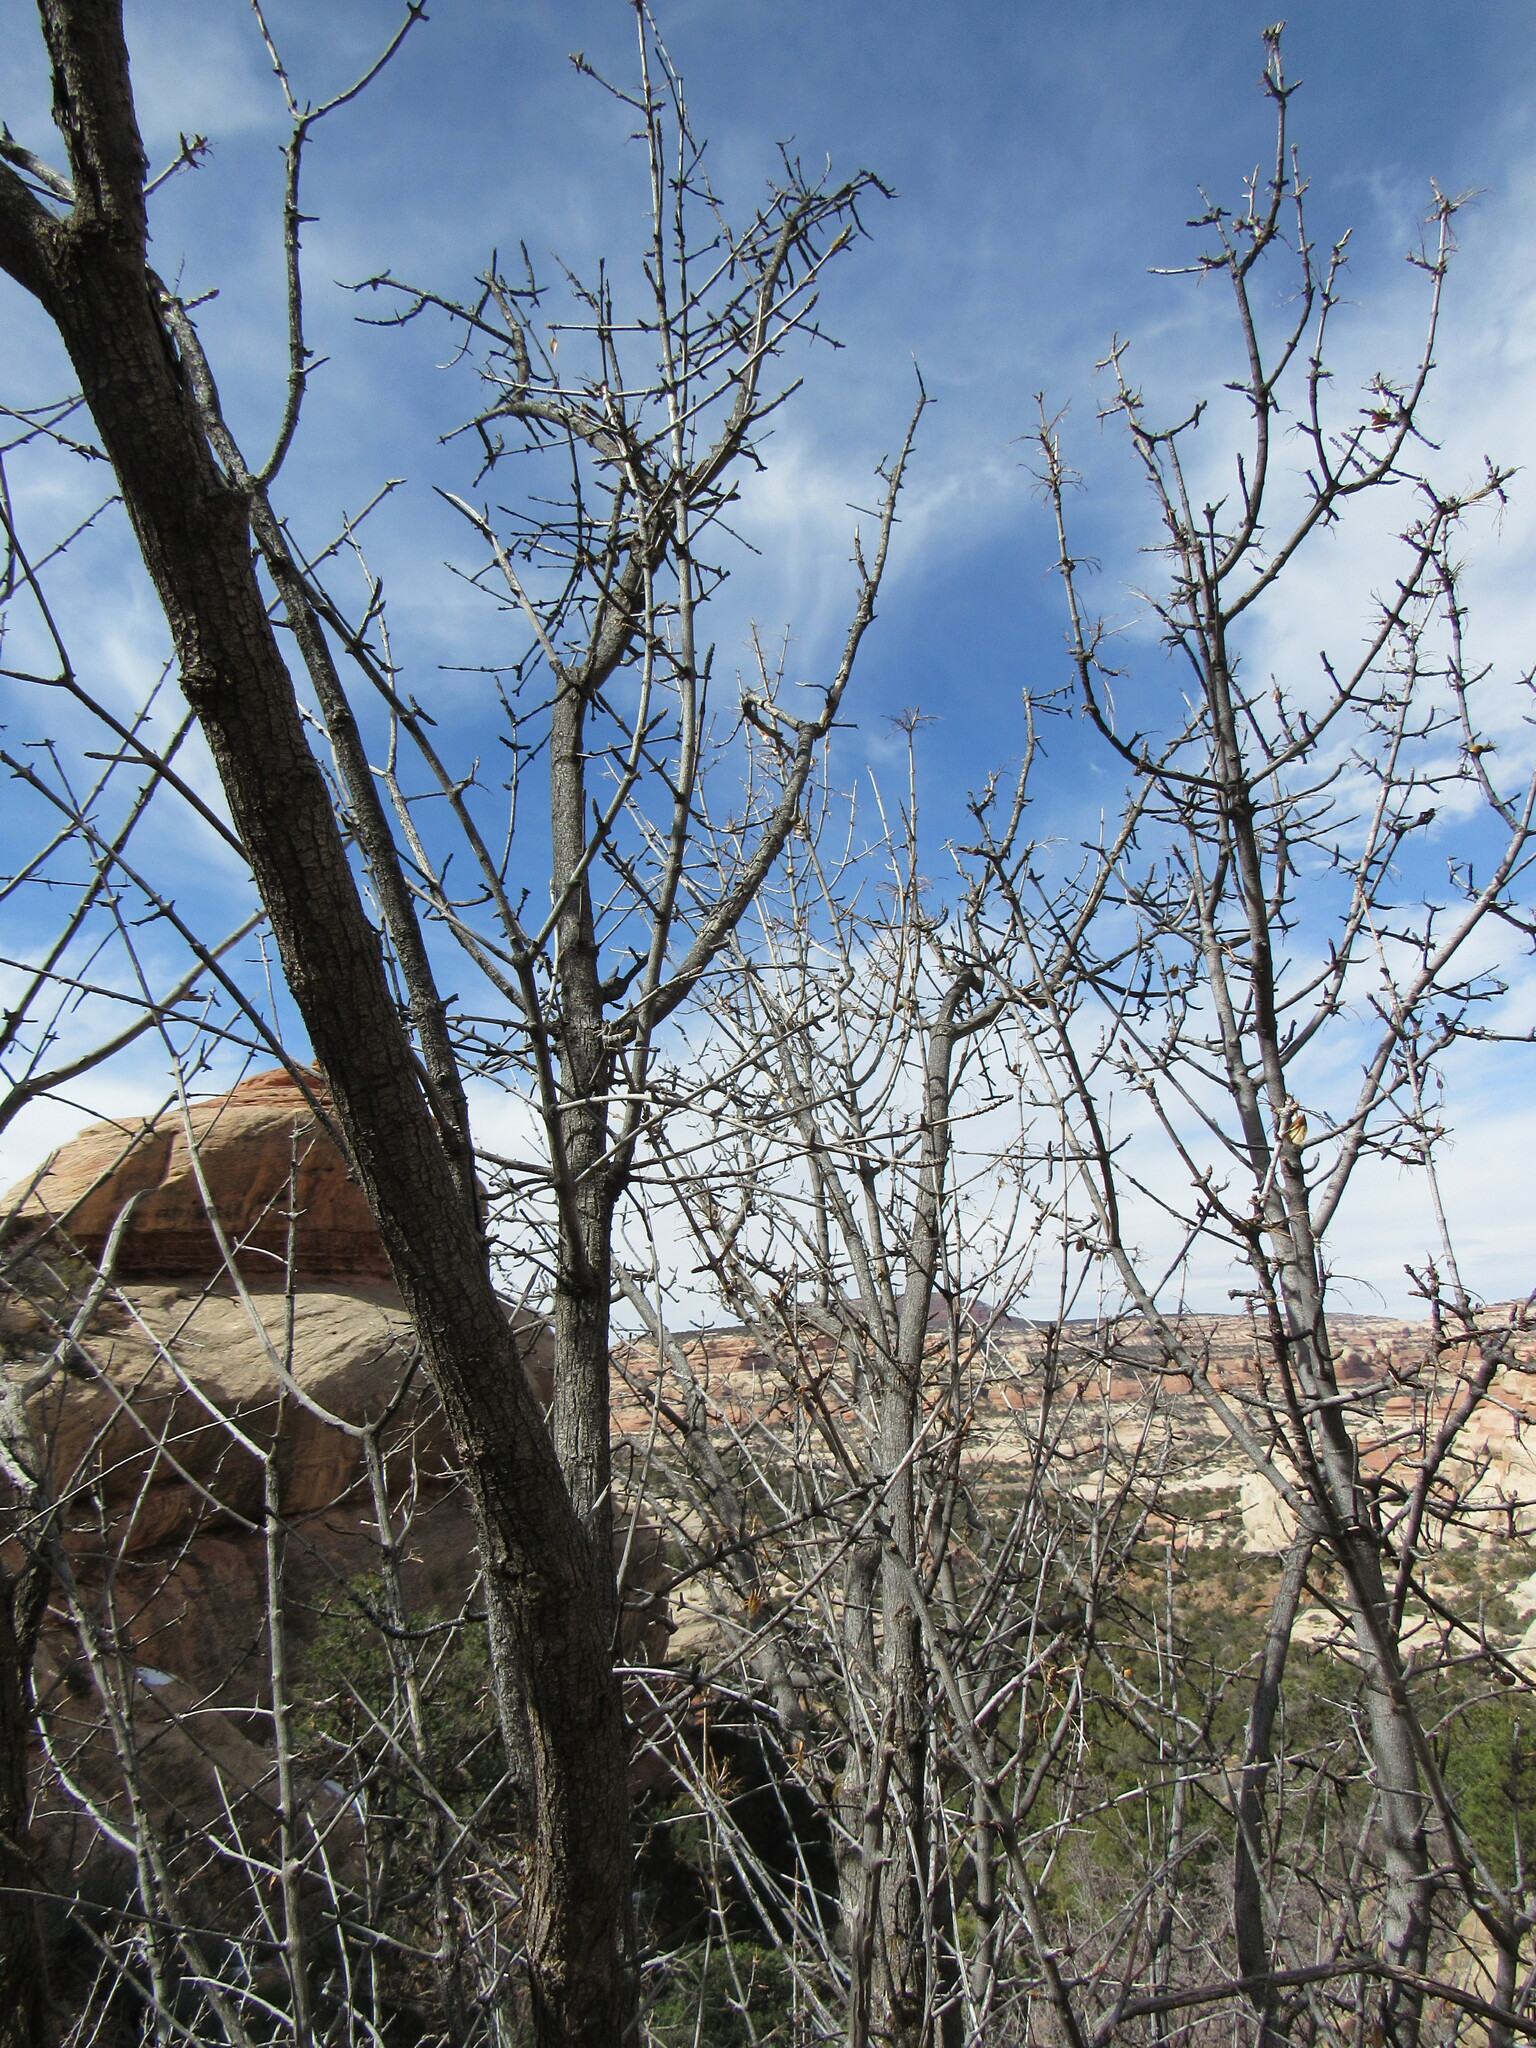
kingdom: Plantae
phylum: Tracheophyta
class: Magnoliopsida
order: Lamiales
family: Oleaceae
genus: Fraxinus
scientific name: Fraxinus anomala
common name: Utah ash
